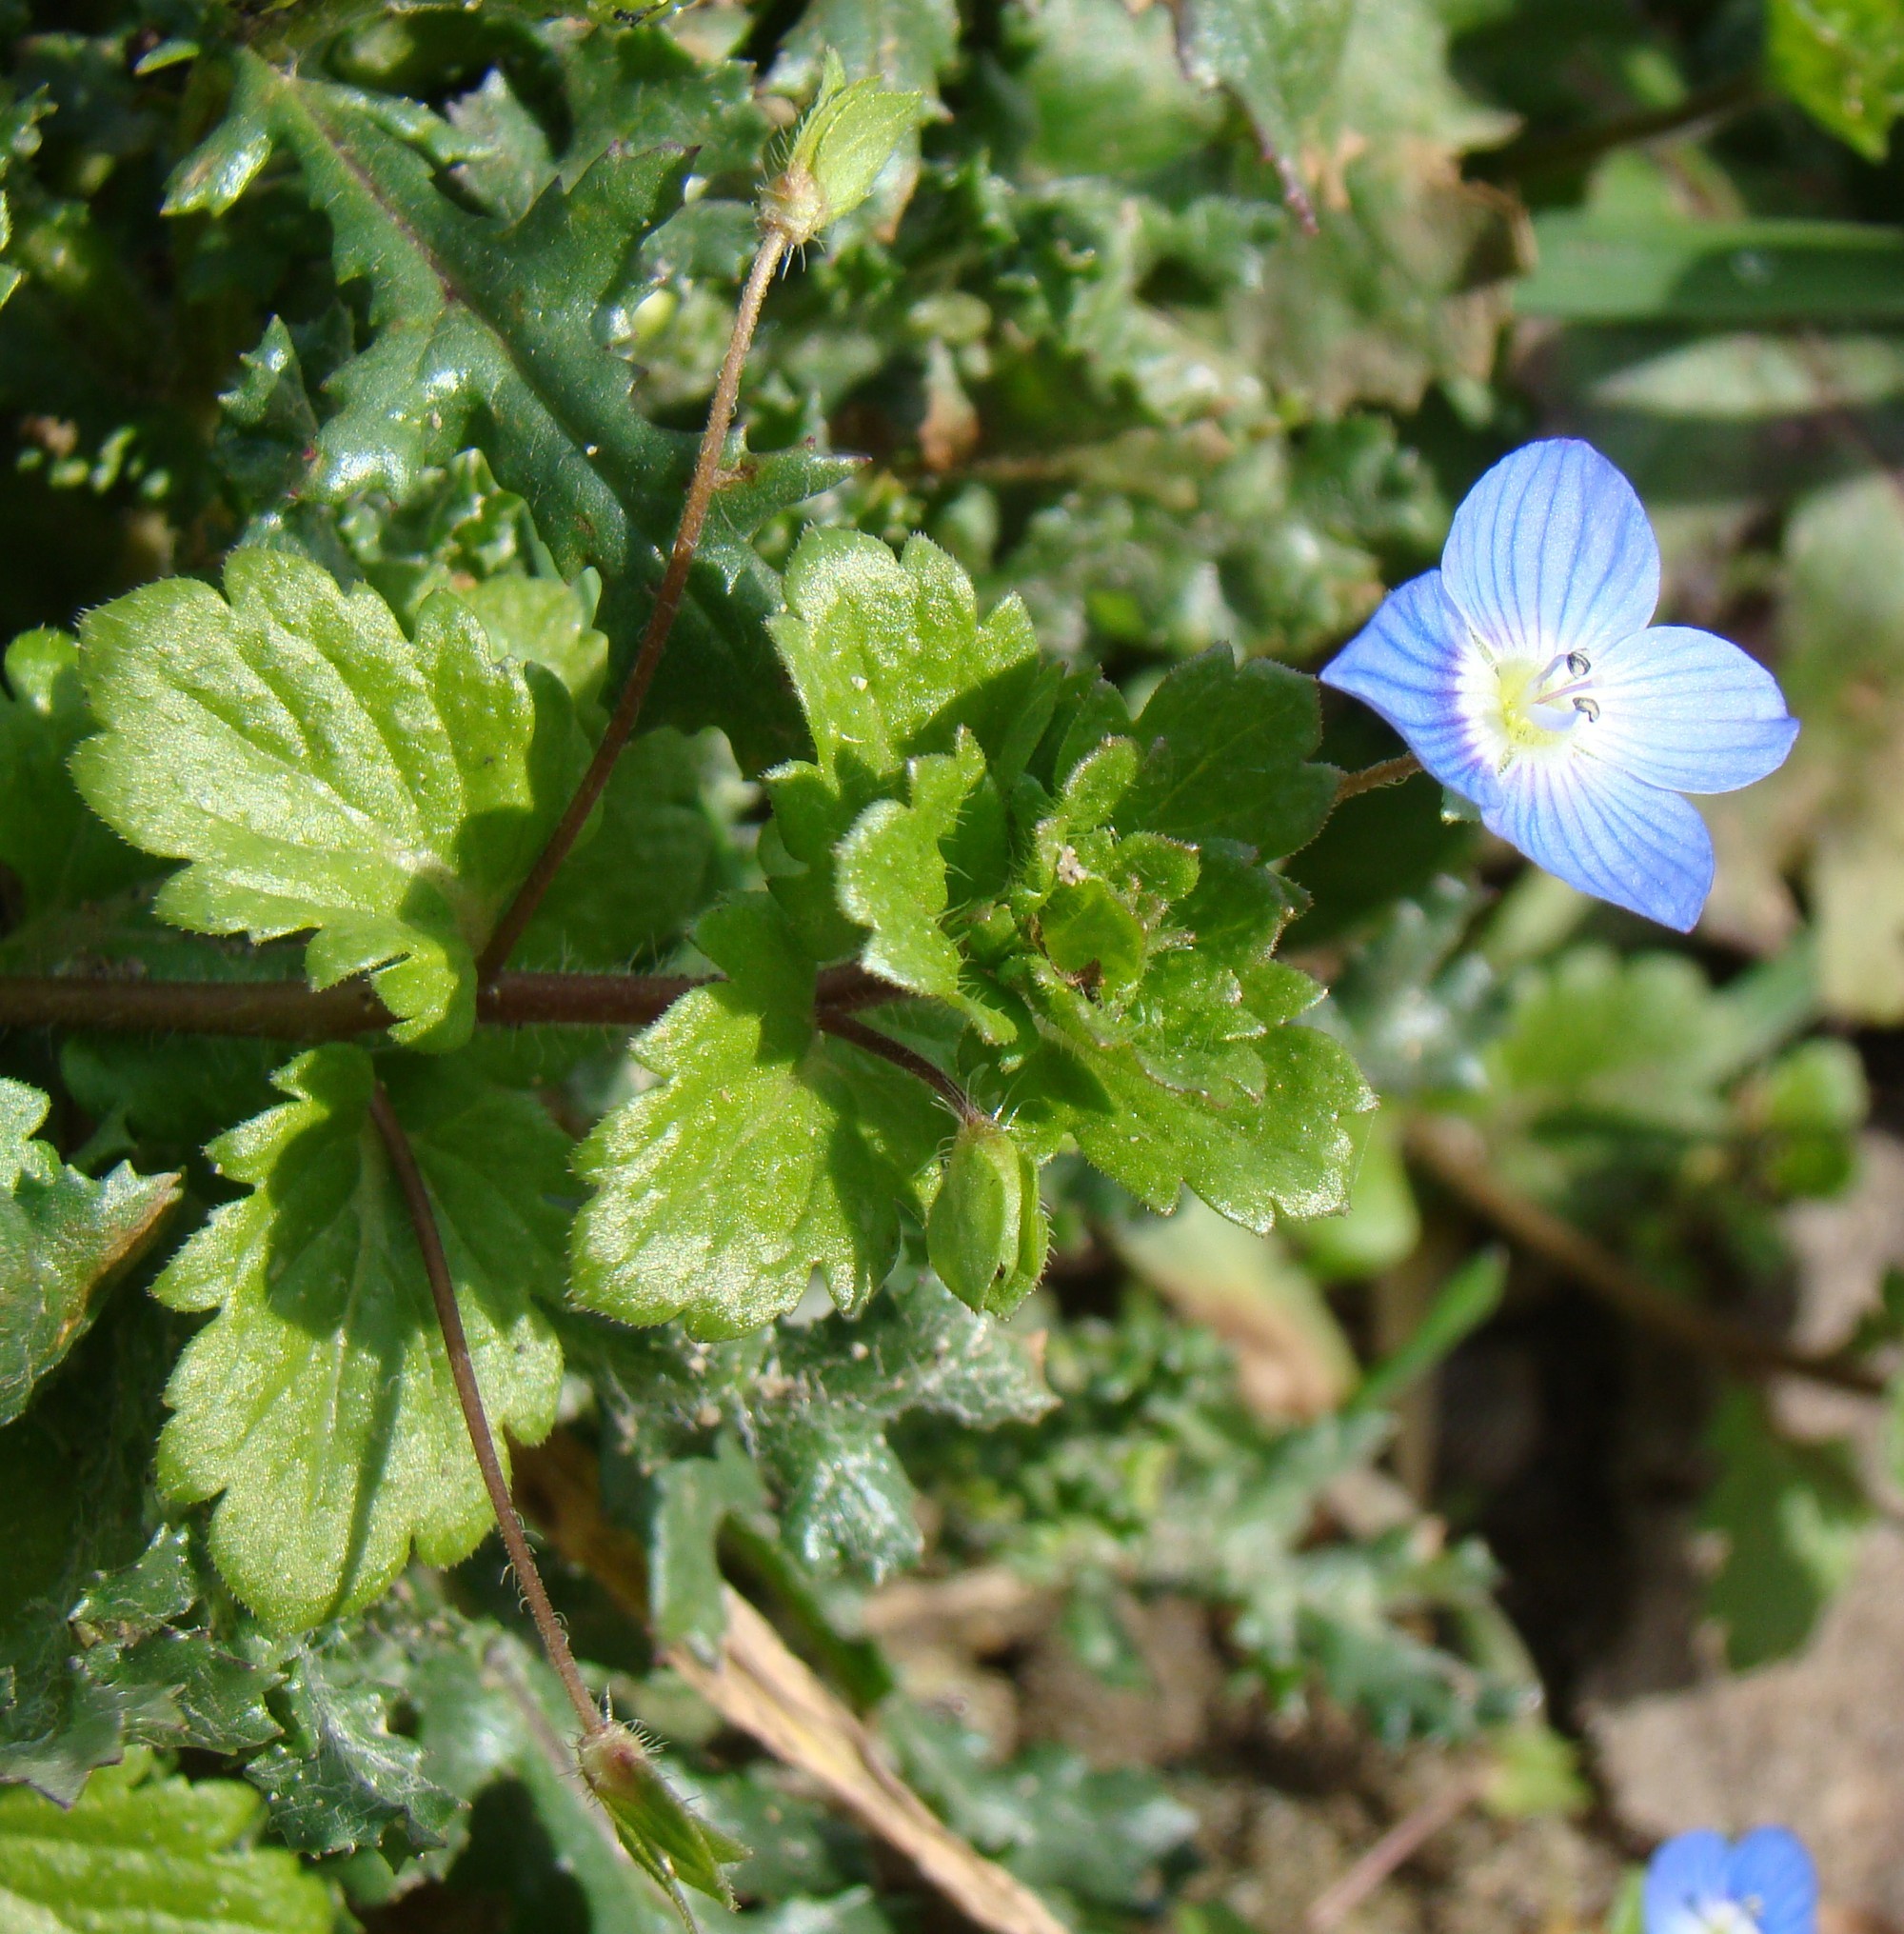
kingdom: Plantae
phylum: Tracheophyta
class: Magnoliopsida
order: Lamiales
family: Plantaginaceae
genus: Veronica
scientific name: Veronica persica
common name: Common field-speedwell
